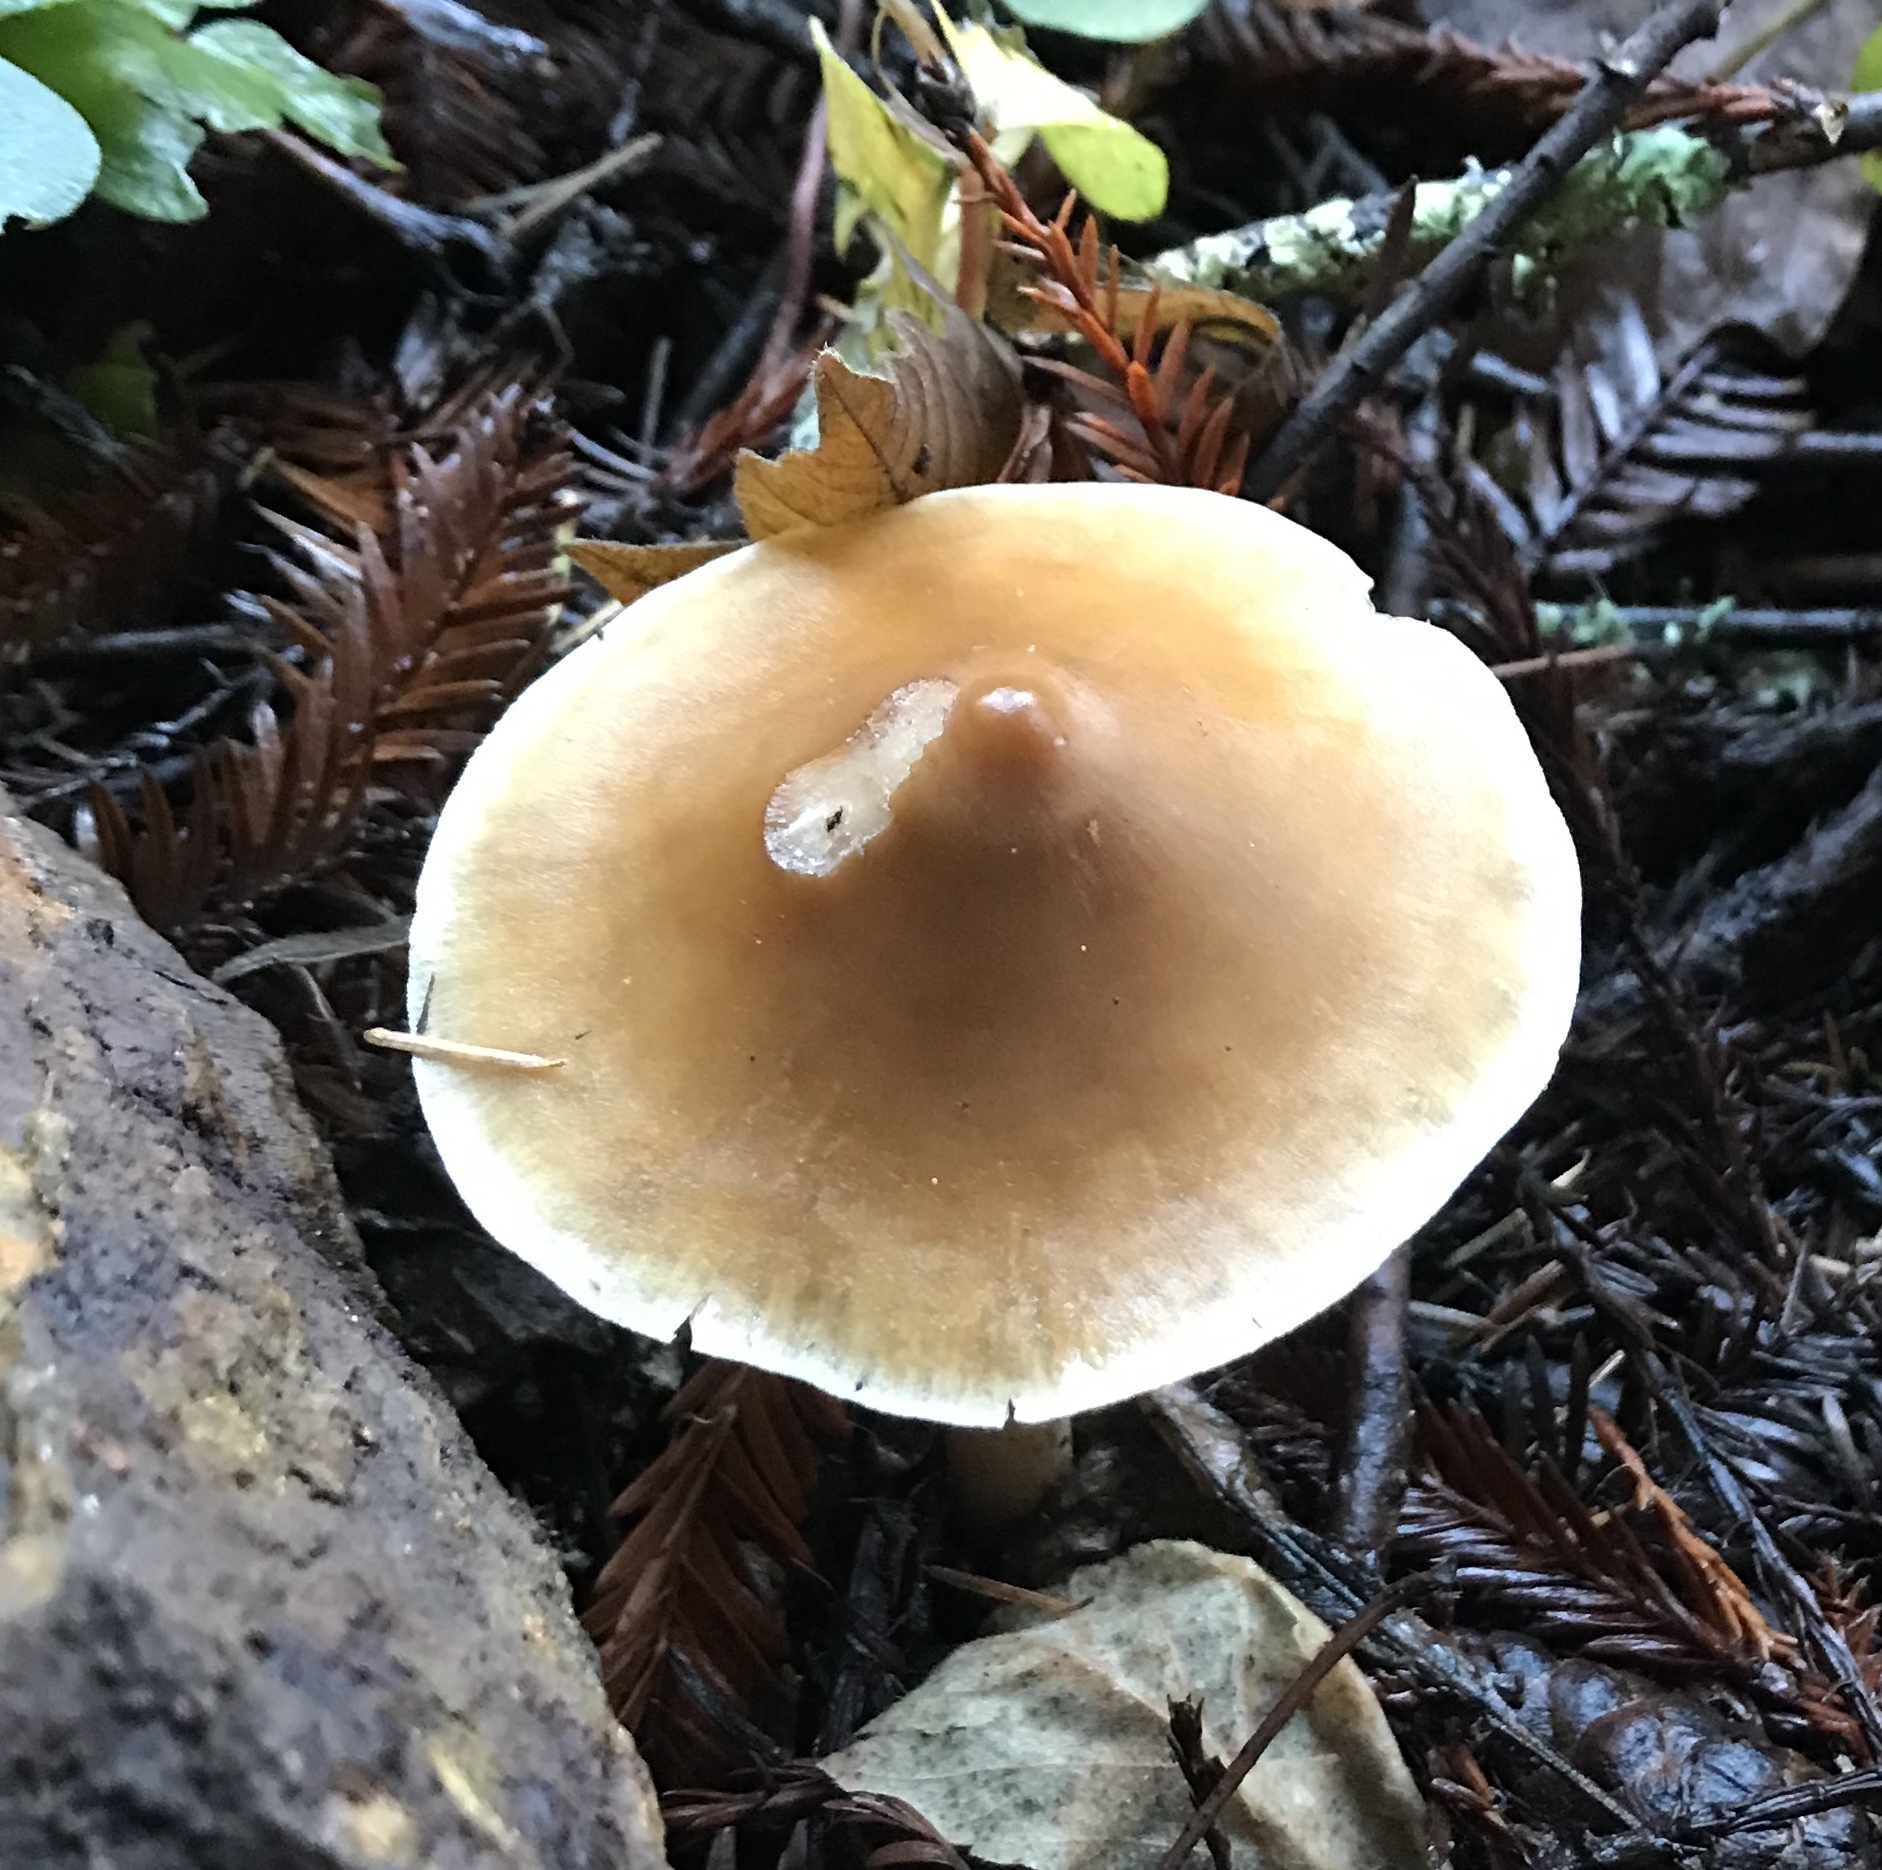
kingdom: Fungi
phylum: Basidiomycota
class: Agaricomycetes
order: Agaricales
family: Tricholomataceae
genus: Caulorhiza
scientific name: Caulorhiza umbonata
